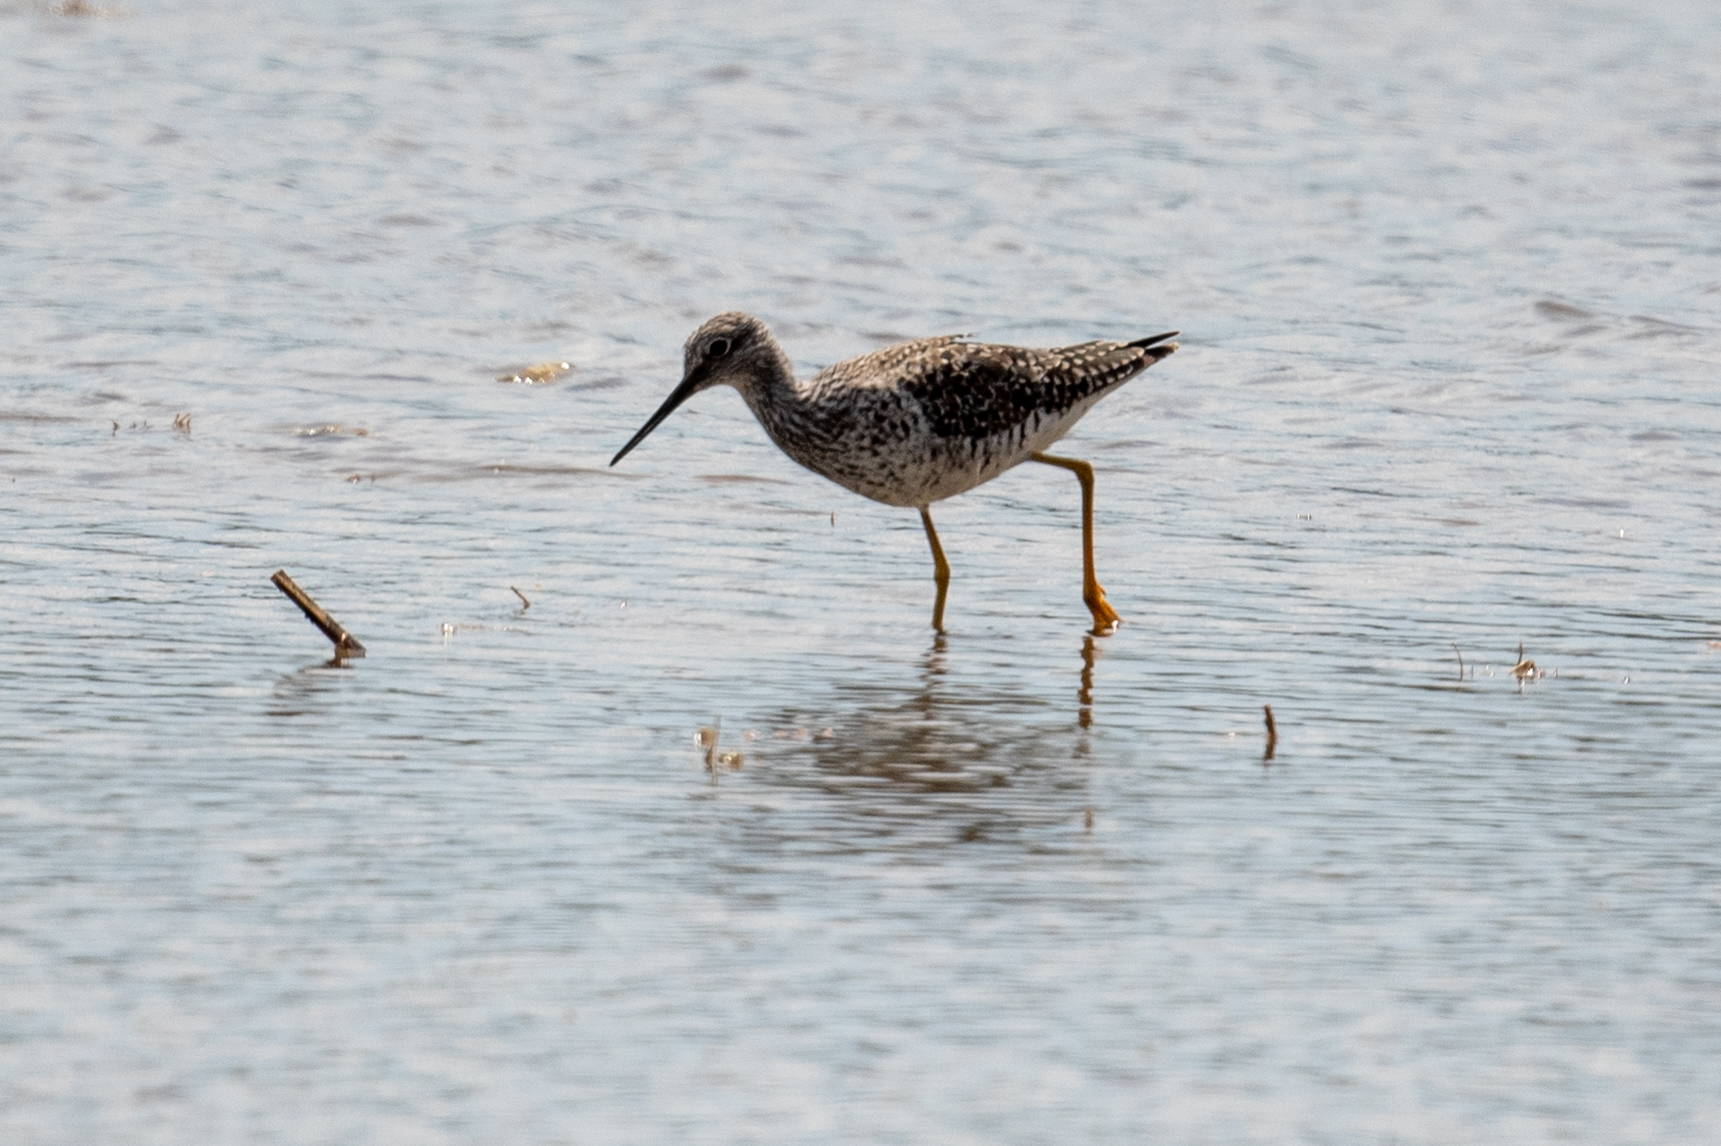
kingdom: Animalia
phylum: Chordata
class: Aves
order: Charadriiformes
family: Scolopacidae
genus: Tringa
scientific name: Tringa melanoleuca
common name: Greater yellowlegs
